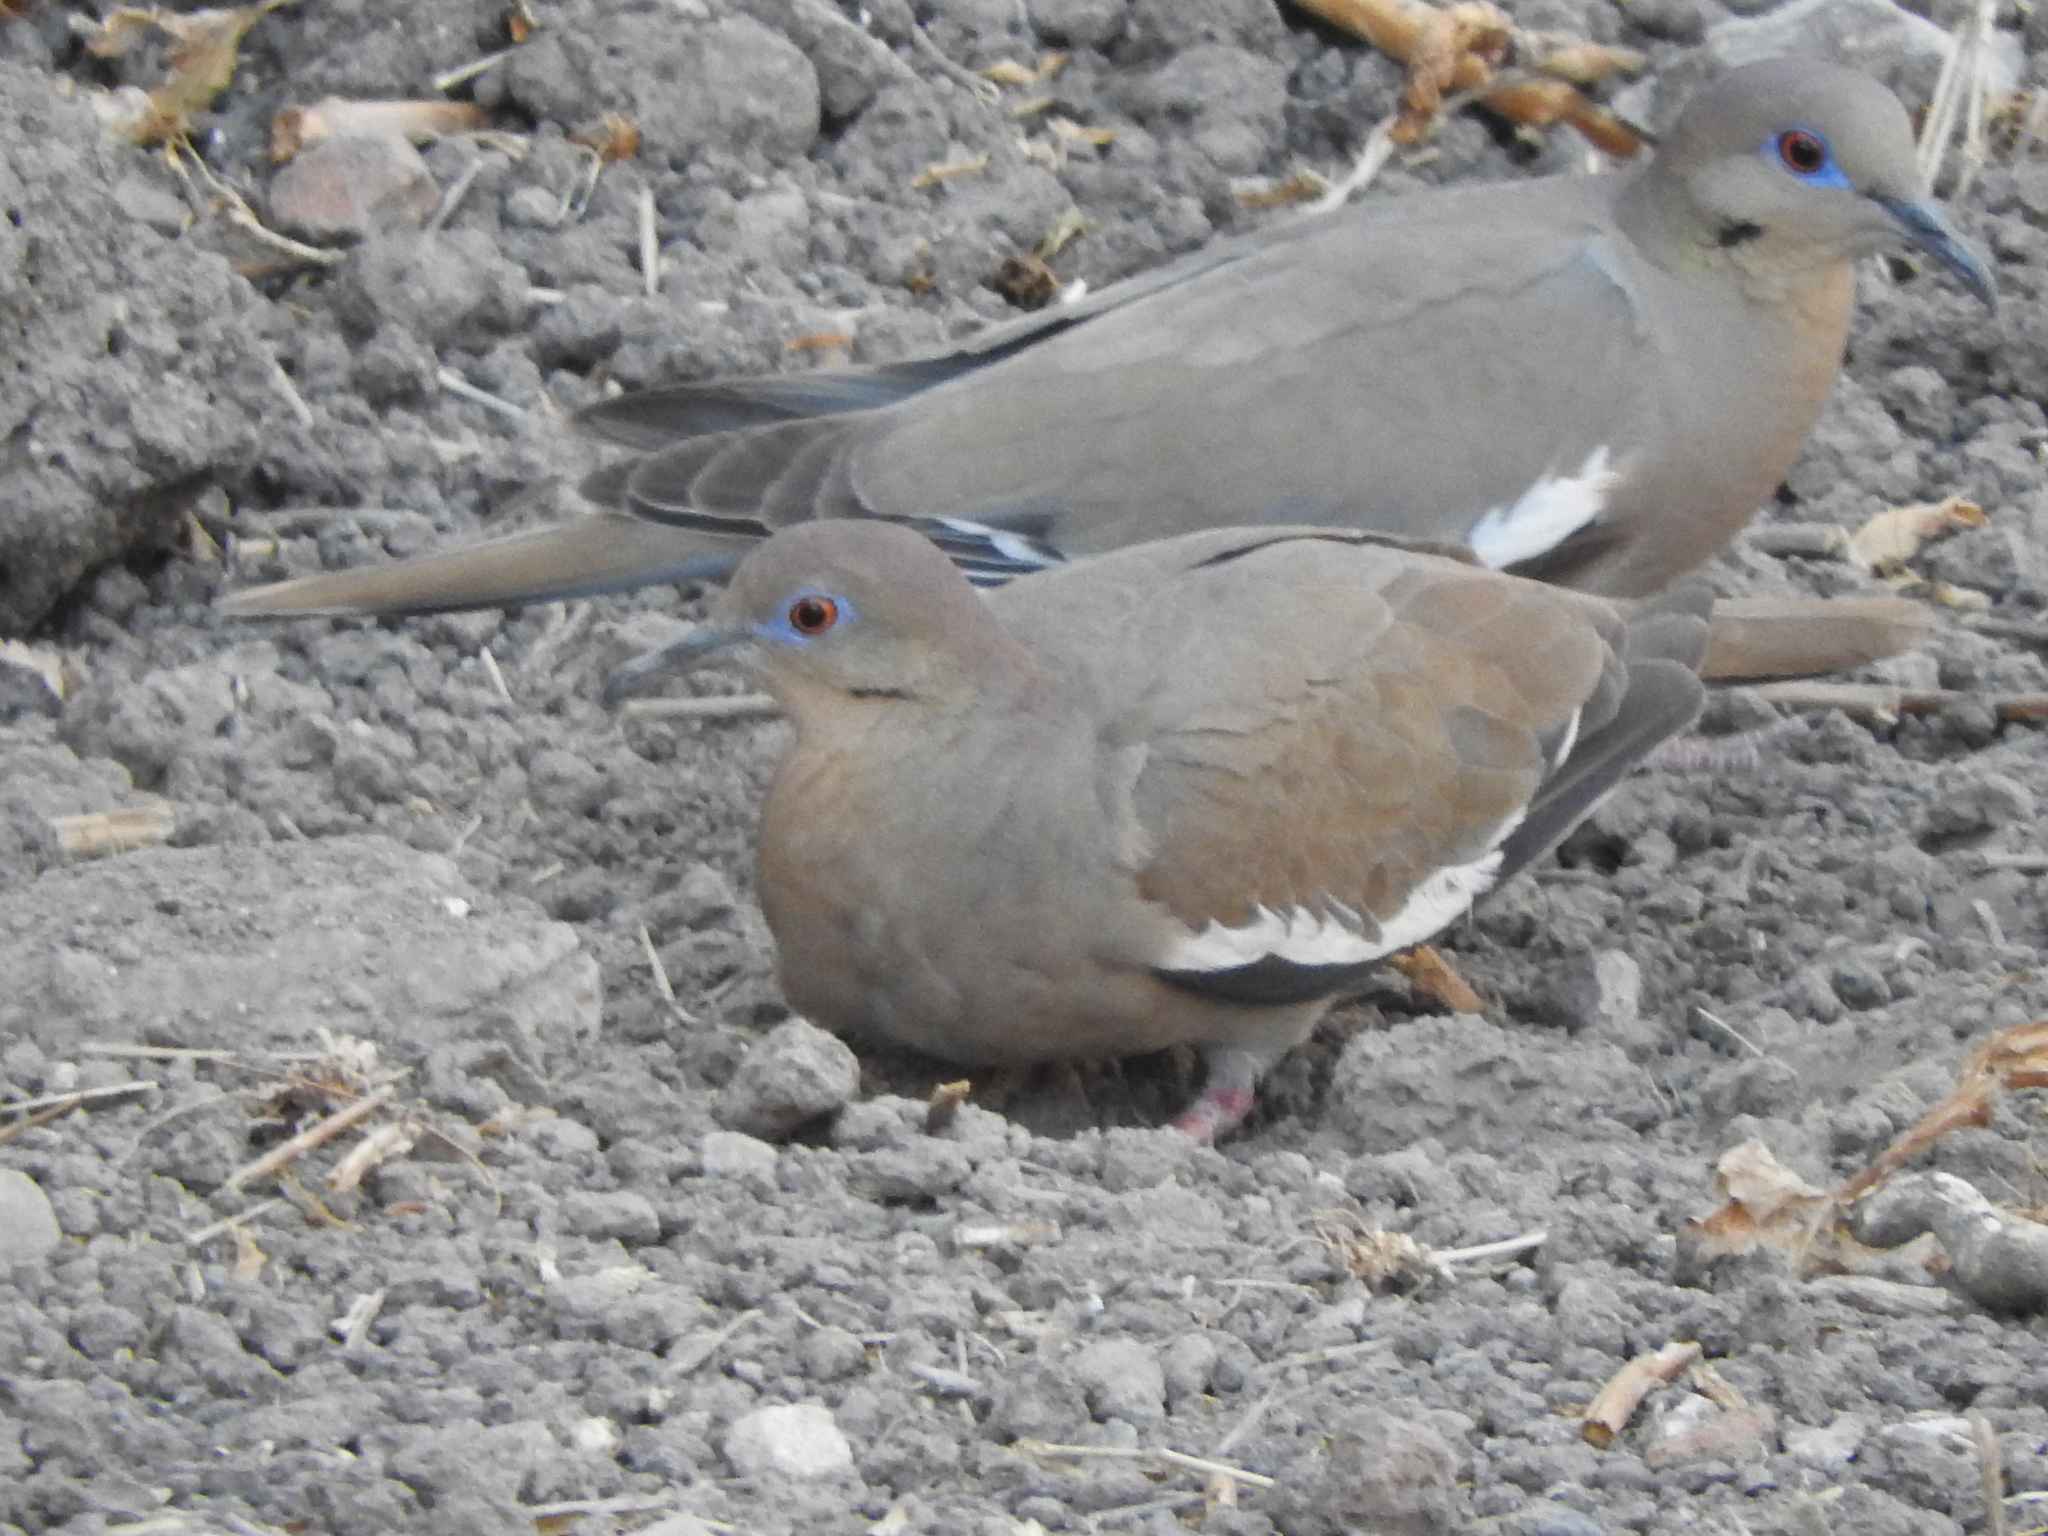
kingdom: Animalia
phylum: Chordata
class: Aves
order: Columbiformes
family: Columbidae
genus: Zenaida
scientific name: Zenaida asiatica
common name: White-winged dove
